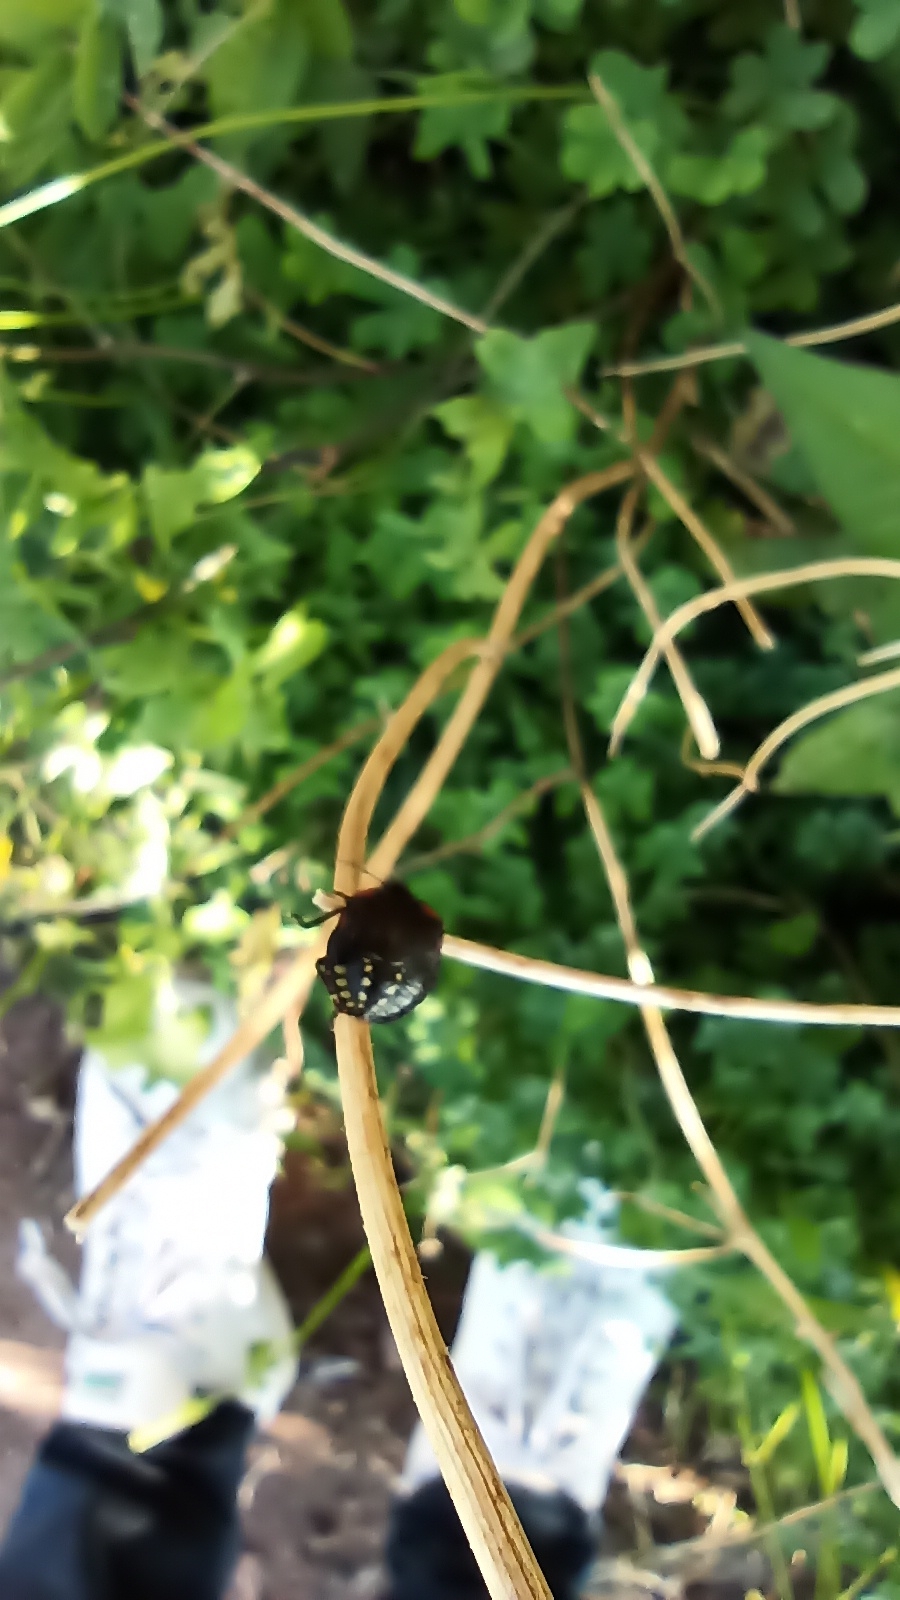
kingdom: Animalia
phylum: Arthropoda
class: Insecta
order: Hemiptera
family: Pentatomidae
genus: Nezara
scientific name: Nezara viridula
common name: Southern green stink bug
